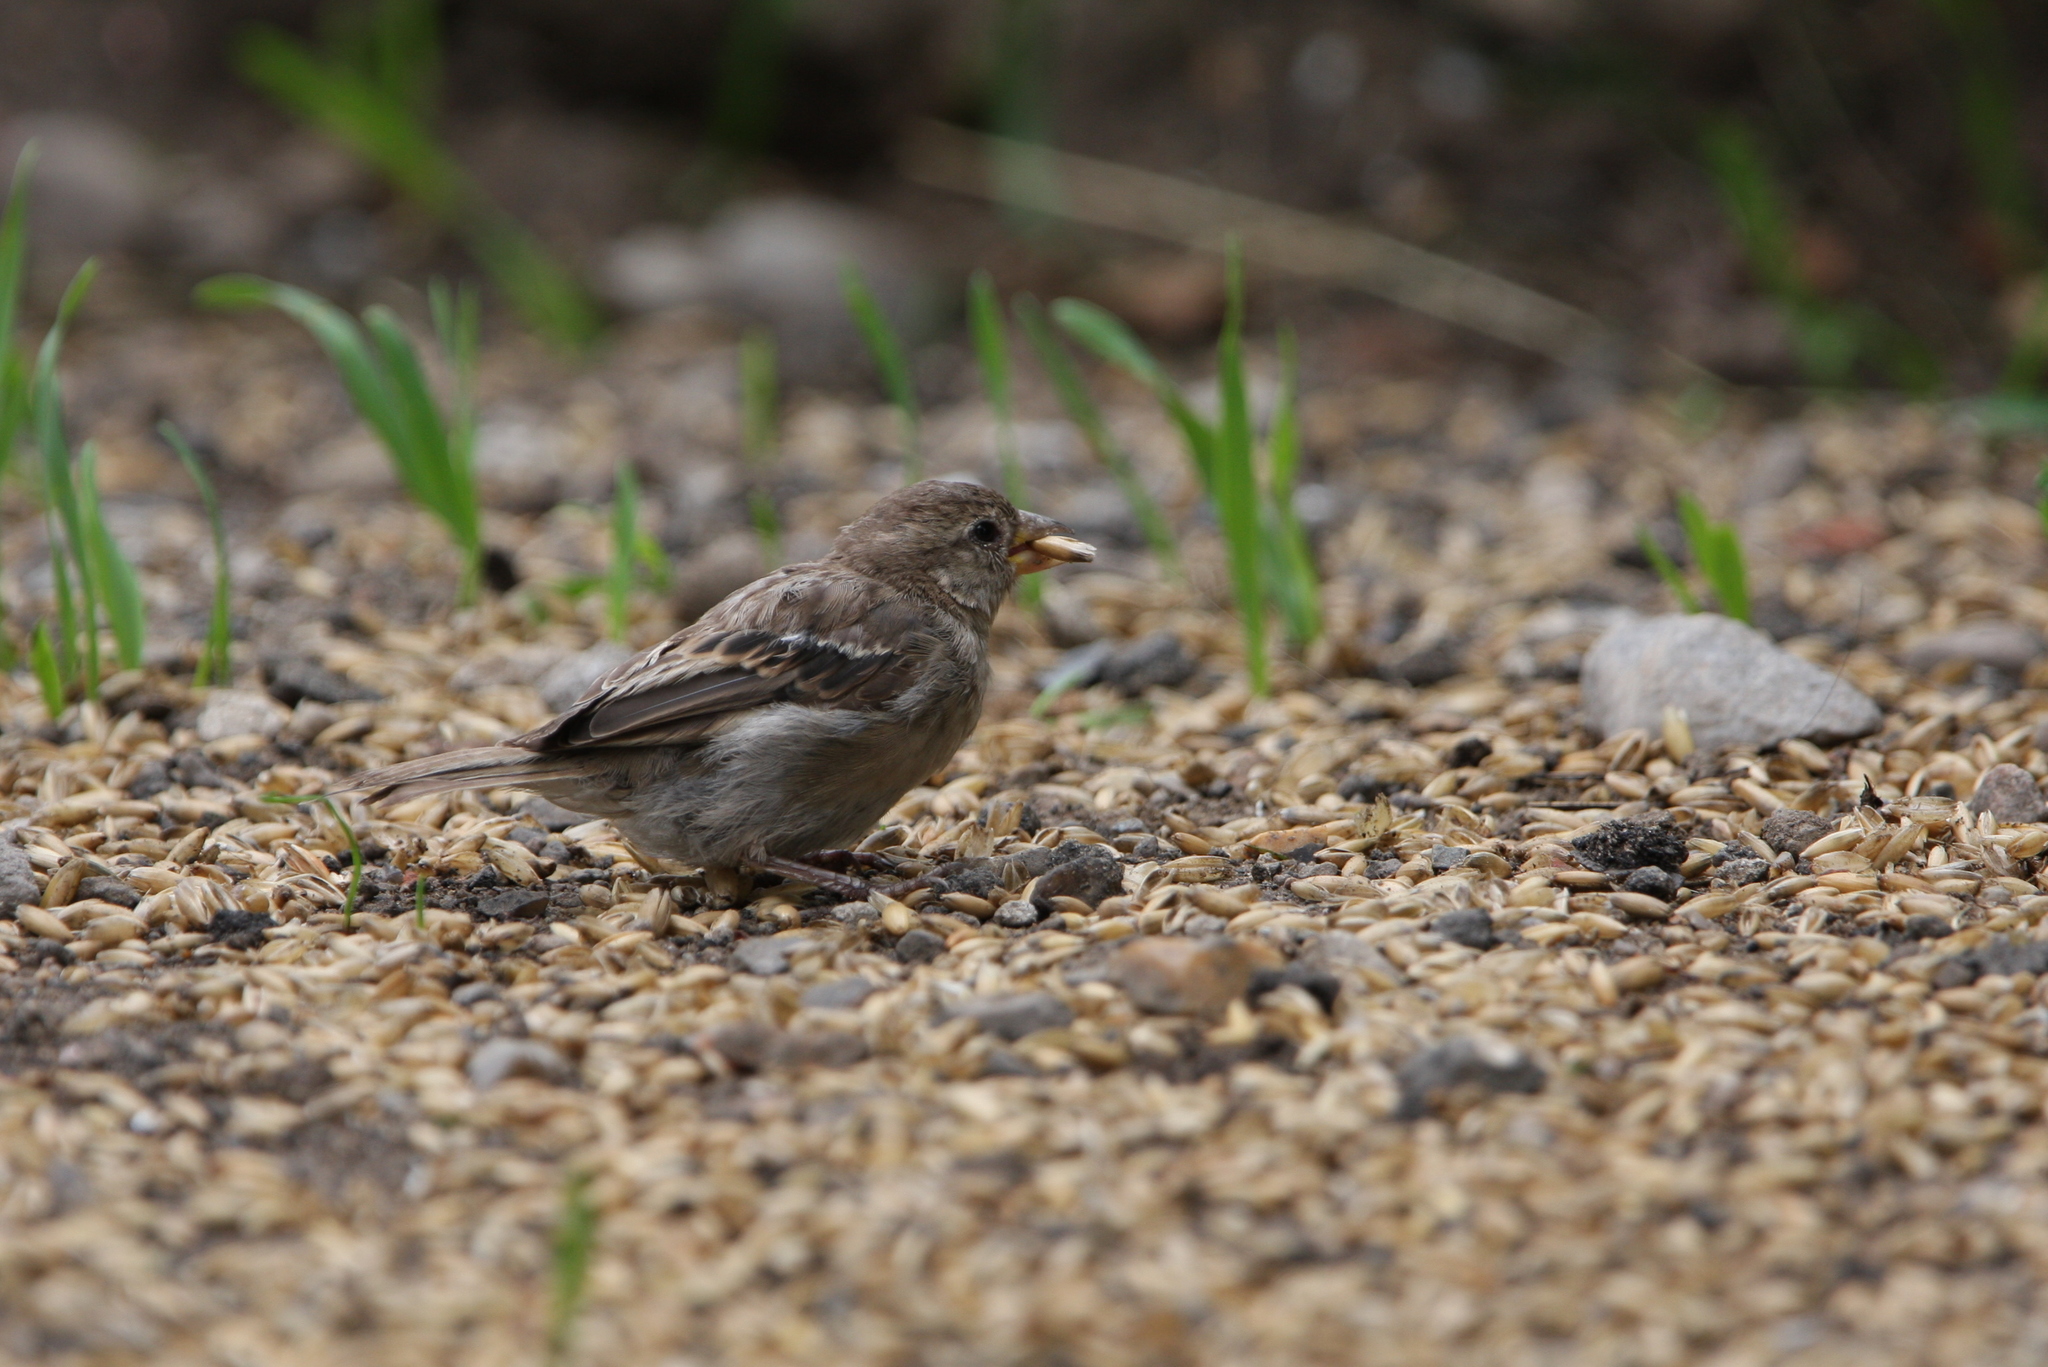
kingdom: Animalia
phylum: Chordata
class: Aves
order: Passeriformes
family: Passeridae
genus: Passer
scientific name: Passer domesticus
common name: House sparrow
